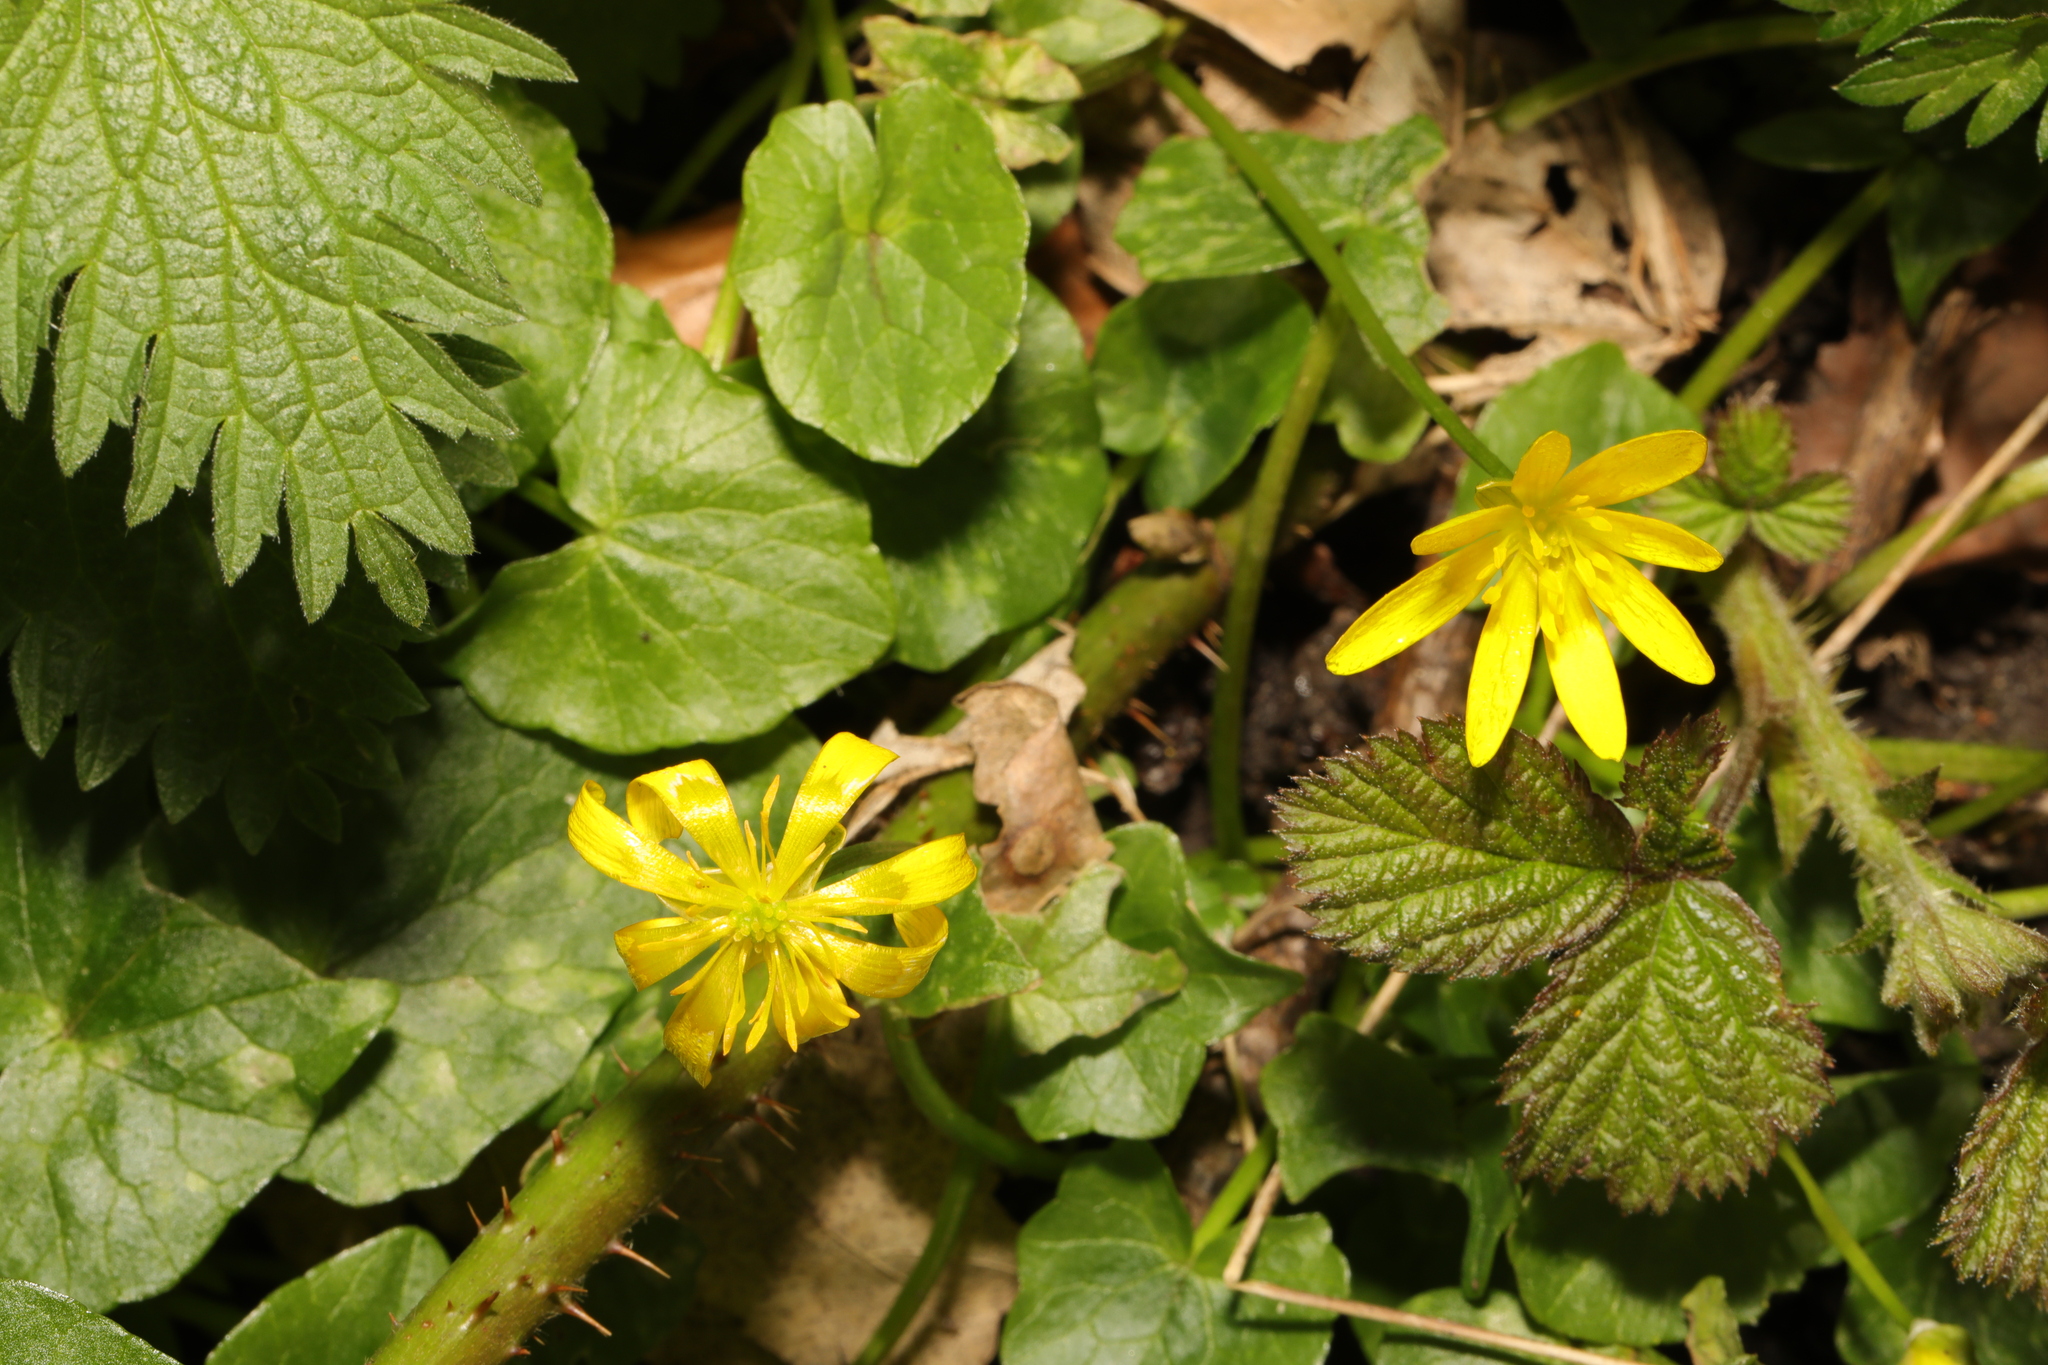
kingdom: Plantae
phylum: Tracheophyta
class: Magnoliopsida
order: Ranunculales
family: Ranunculaceae
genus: Ficaria
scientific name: Ficaria verna
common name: Lesser celandine
